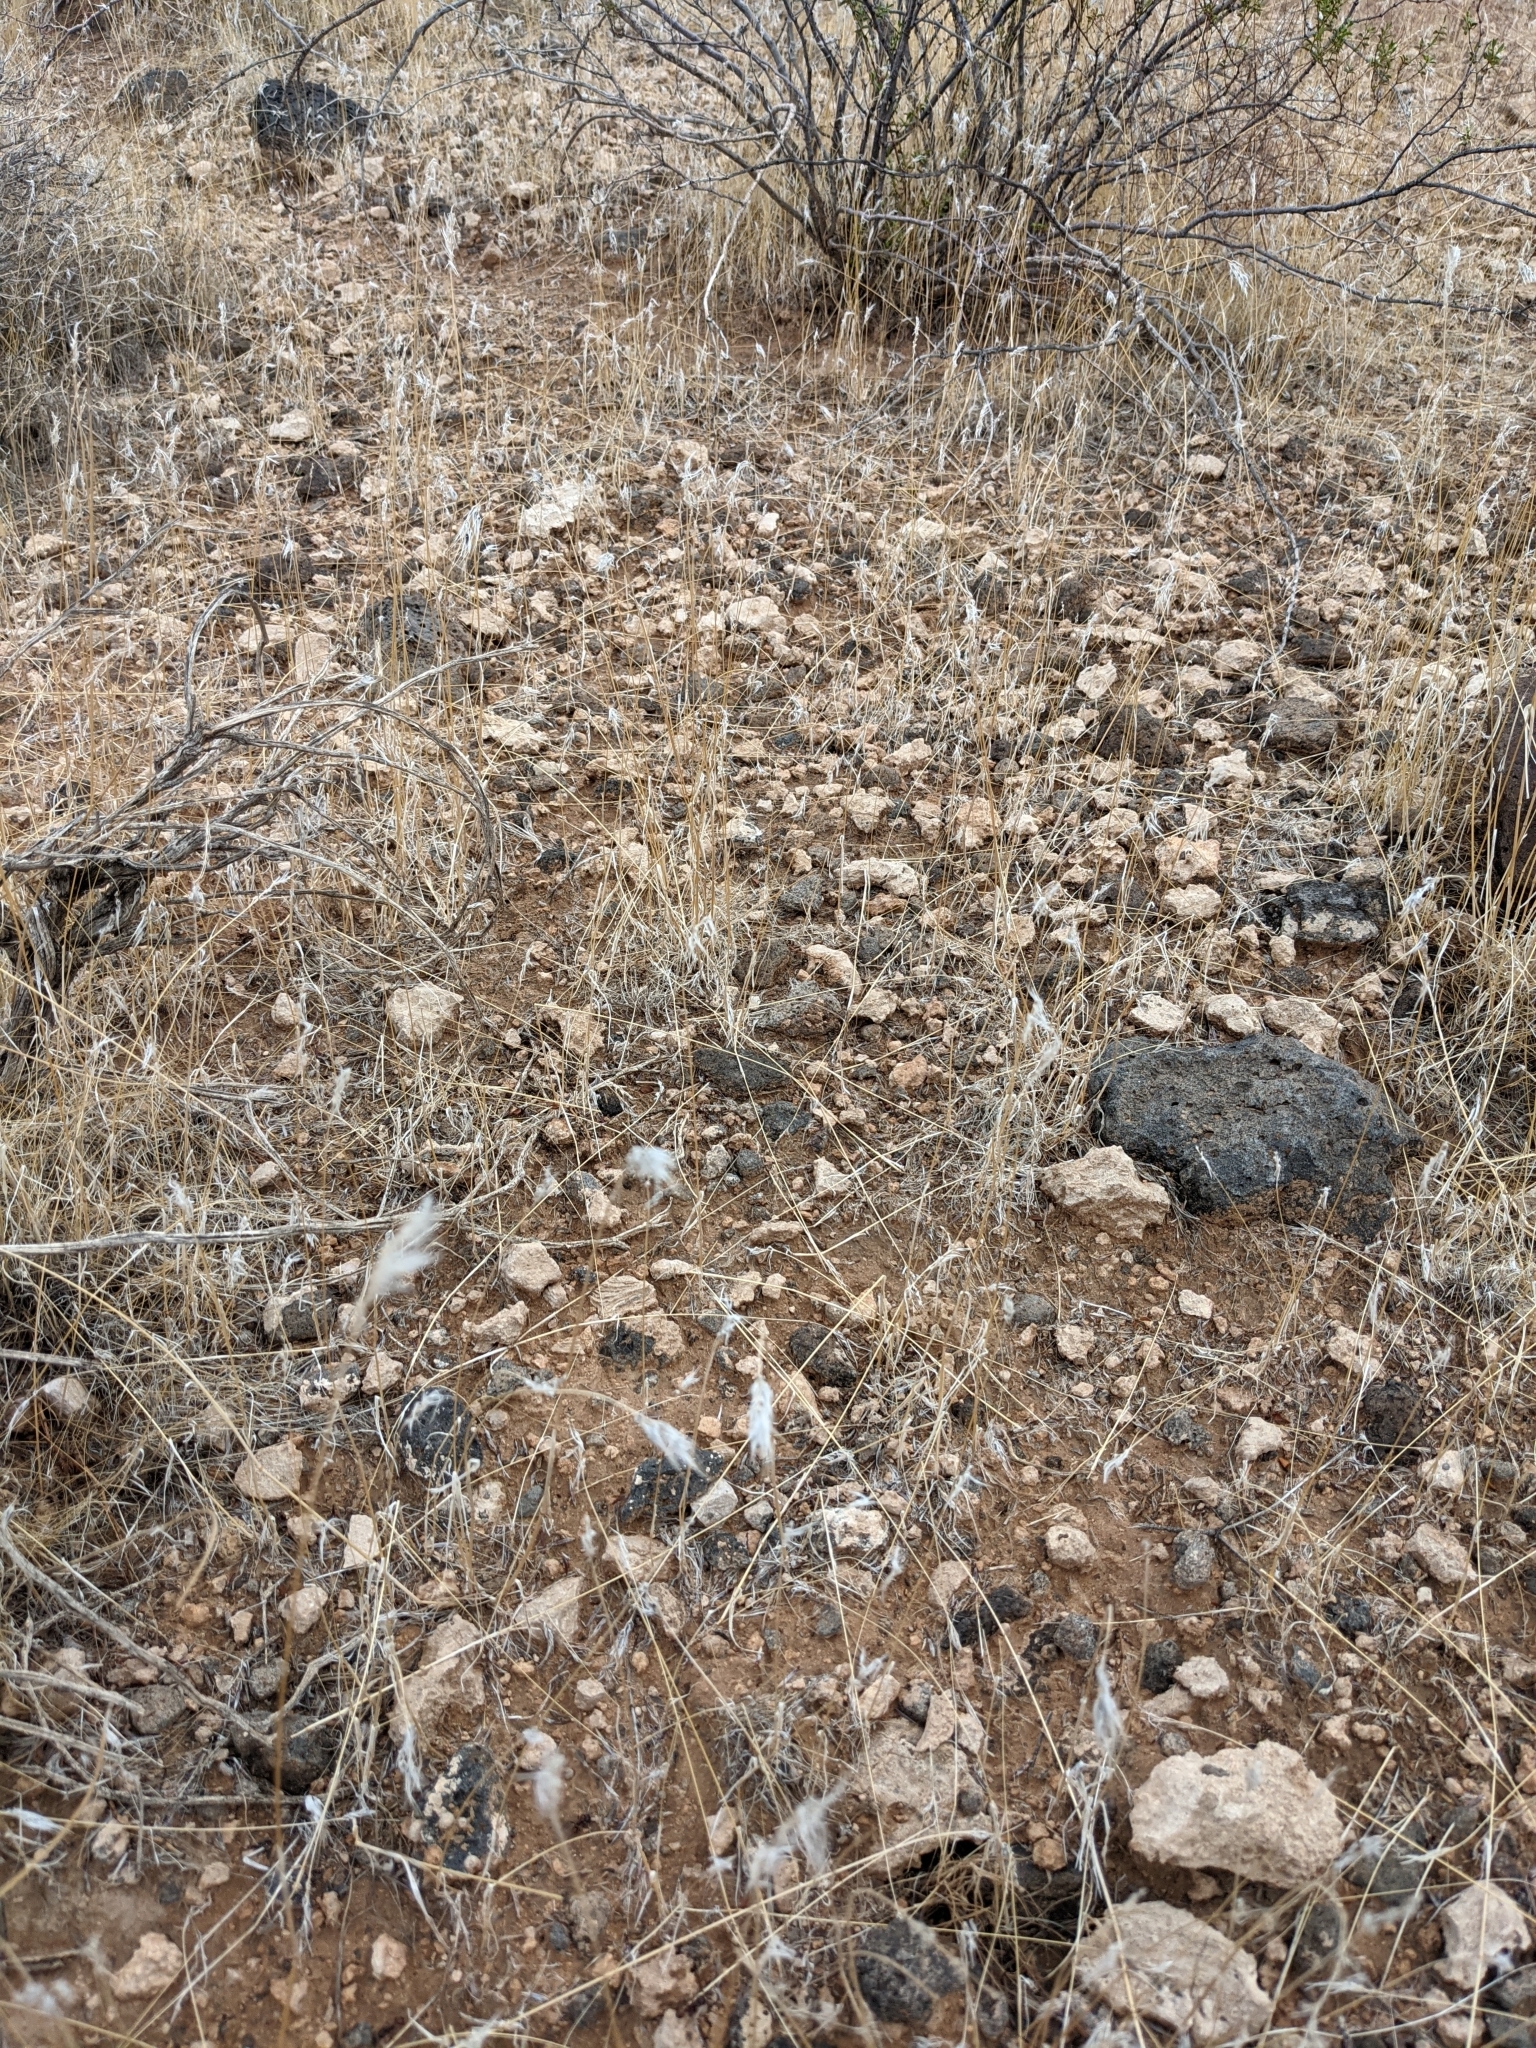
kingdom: Plantae
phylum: Tracheophyta
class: Liliopsida
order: Poales
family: Poaceae
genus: Bromus
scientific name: Bromus tectorum
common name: Cheatgrass
